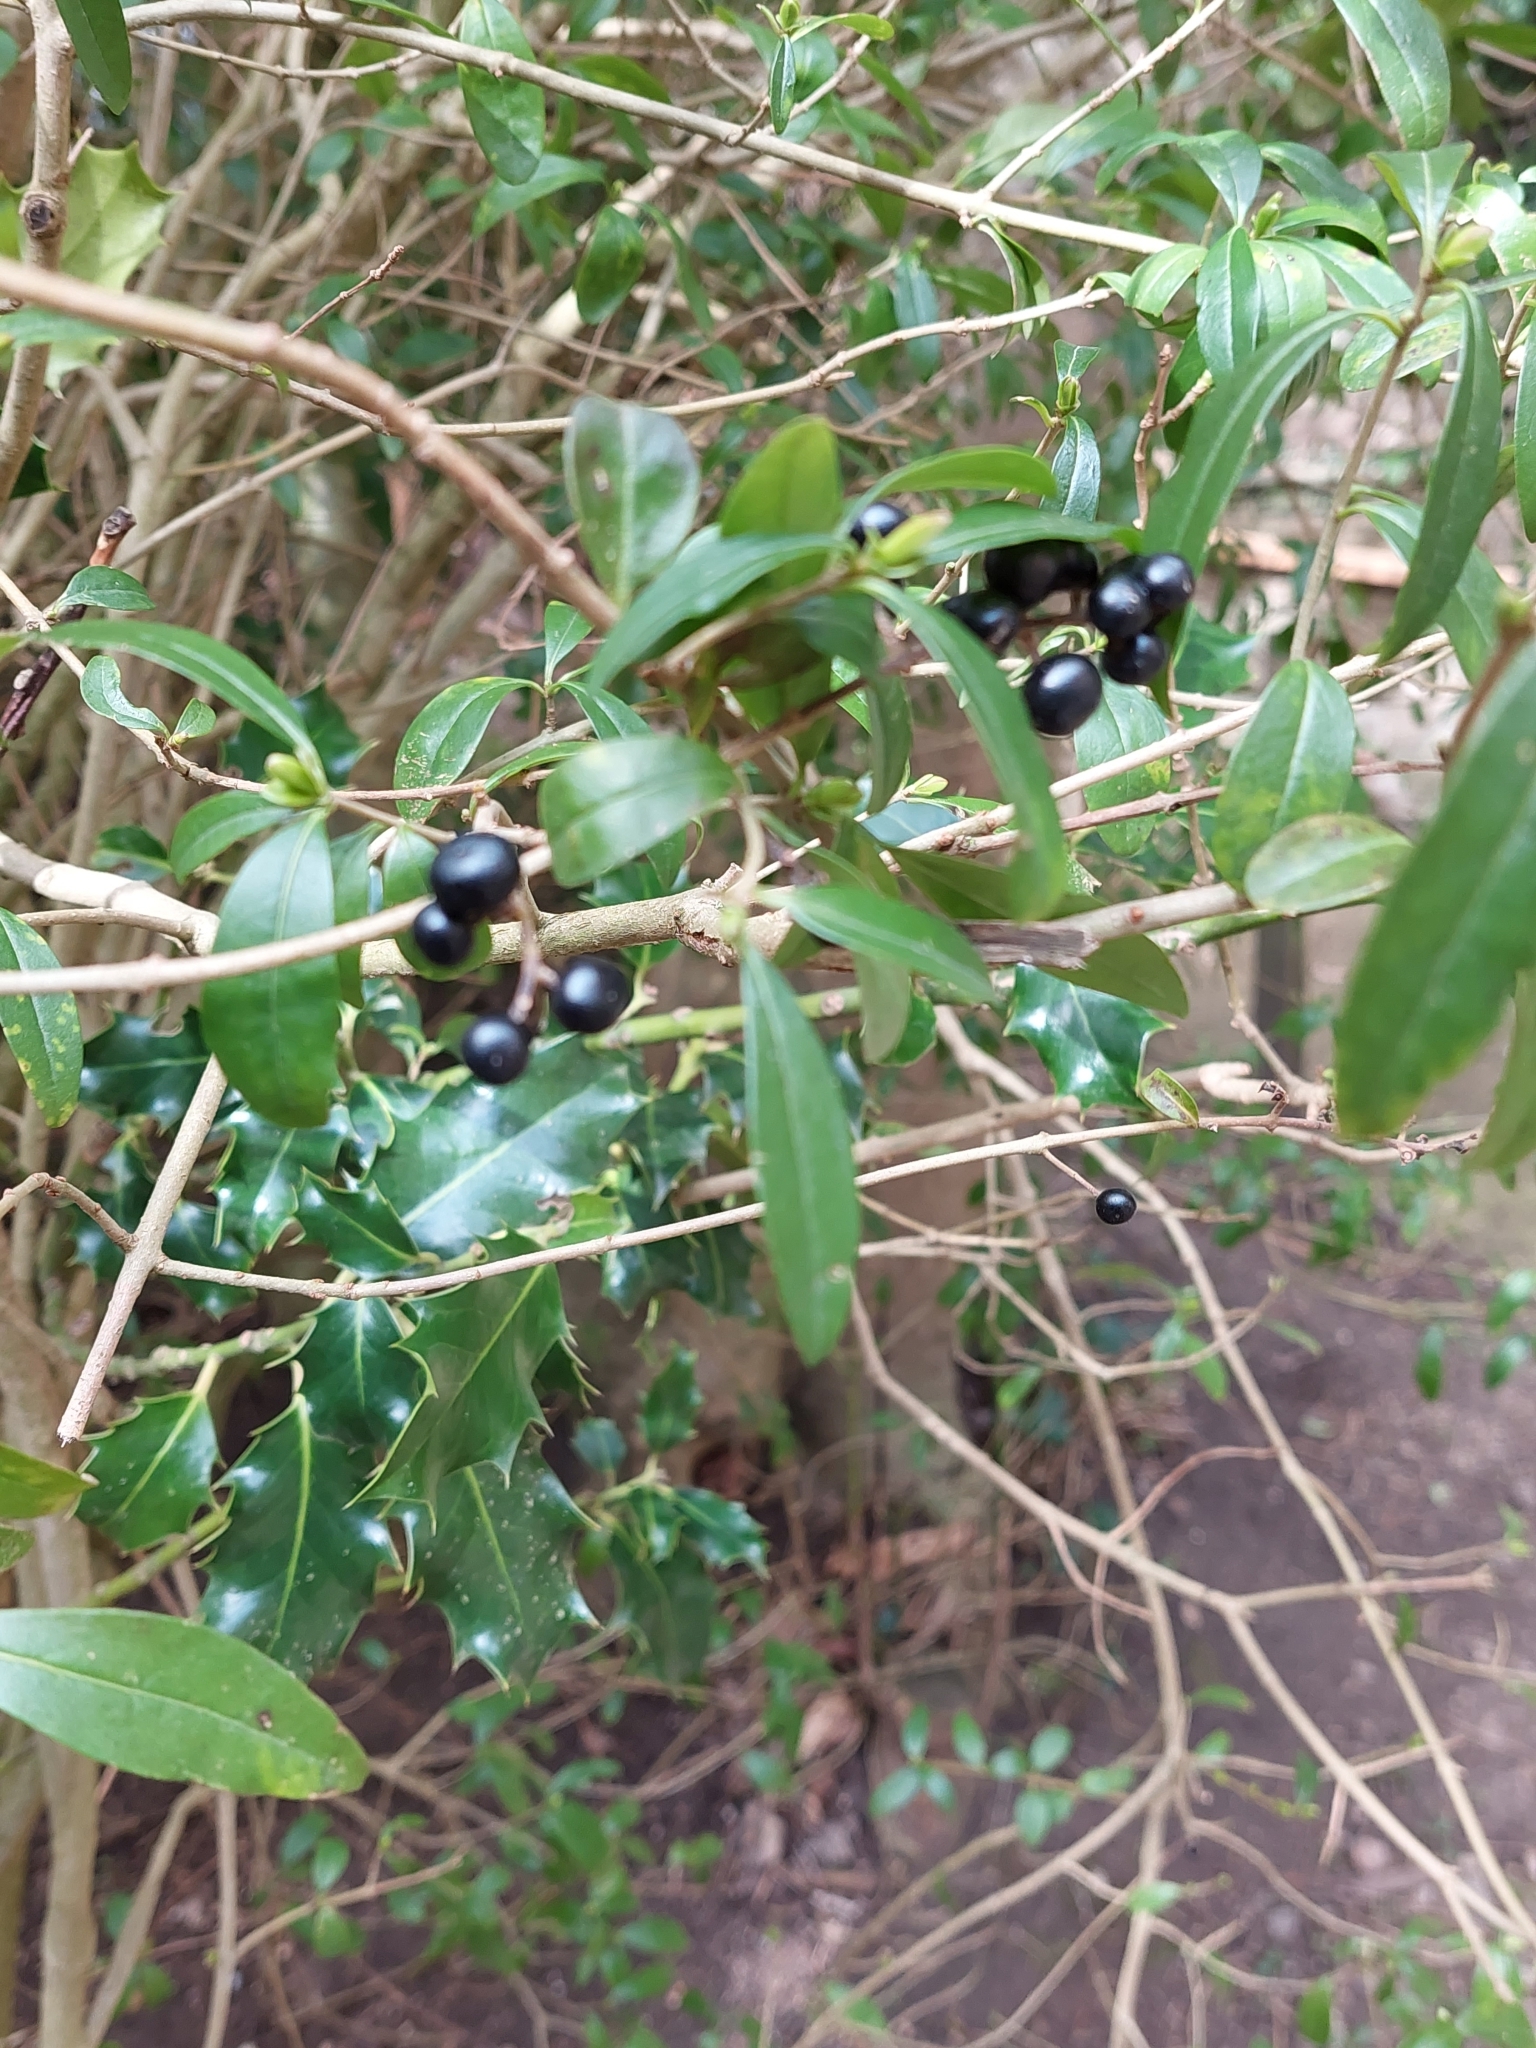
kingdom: Plantae
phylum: Tracheophyta
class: Magnoliopsida
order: Lamiales
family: Oleaceae
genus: Ligustrum
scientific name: Ligustrum vulgare
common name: Wild privet
